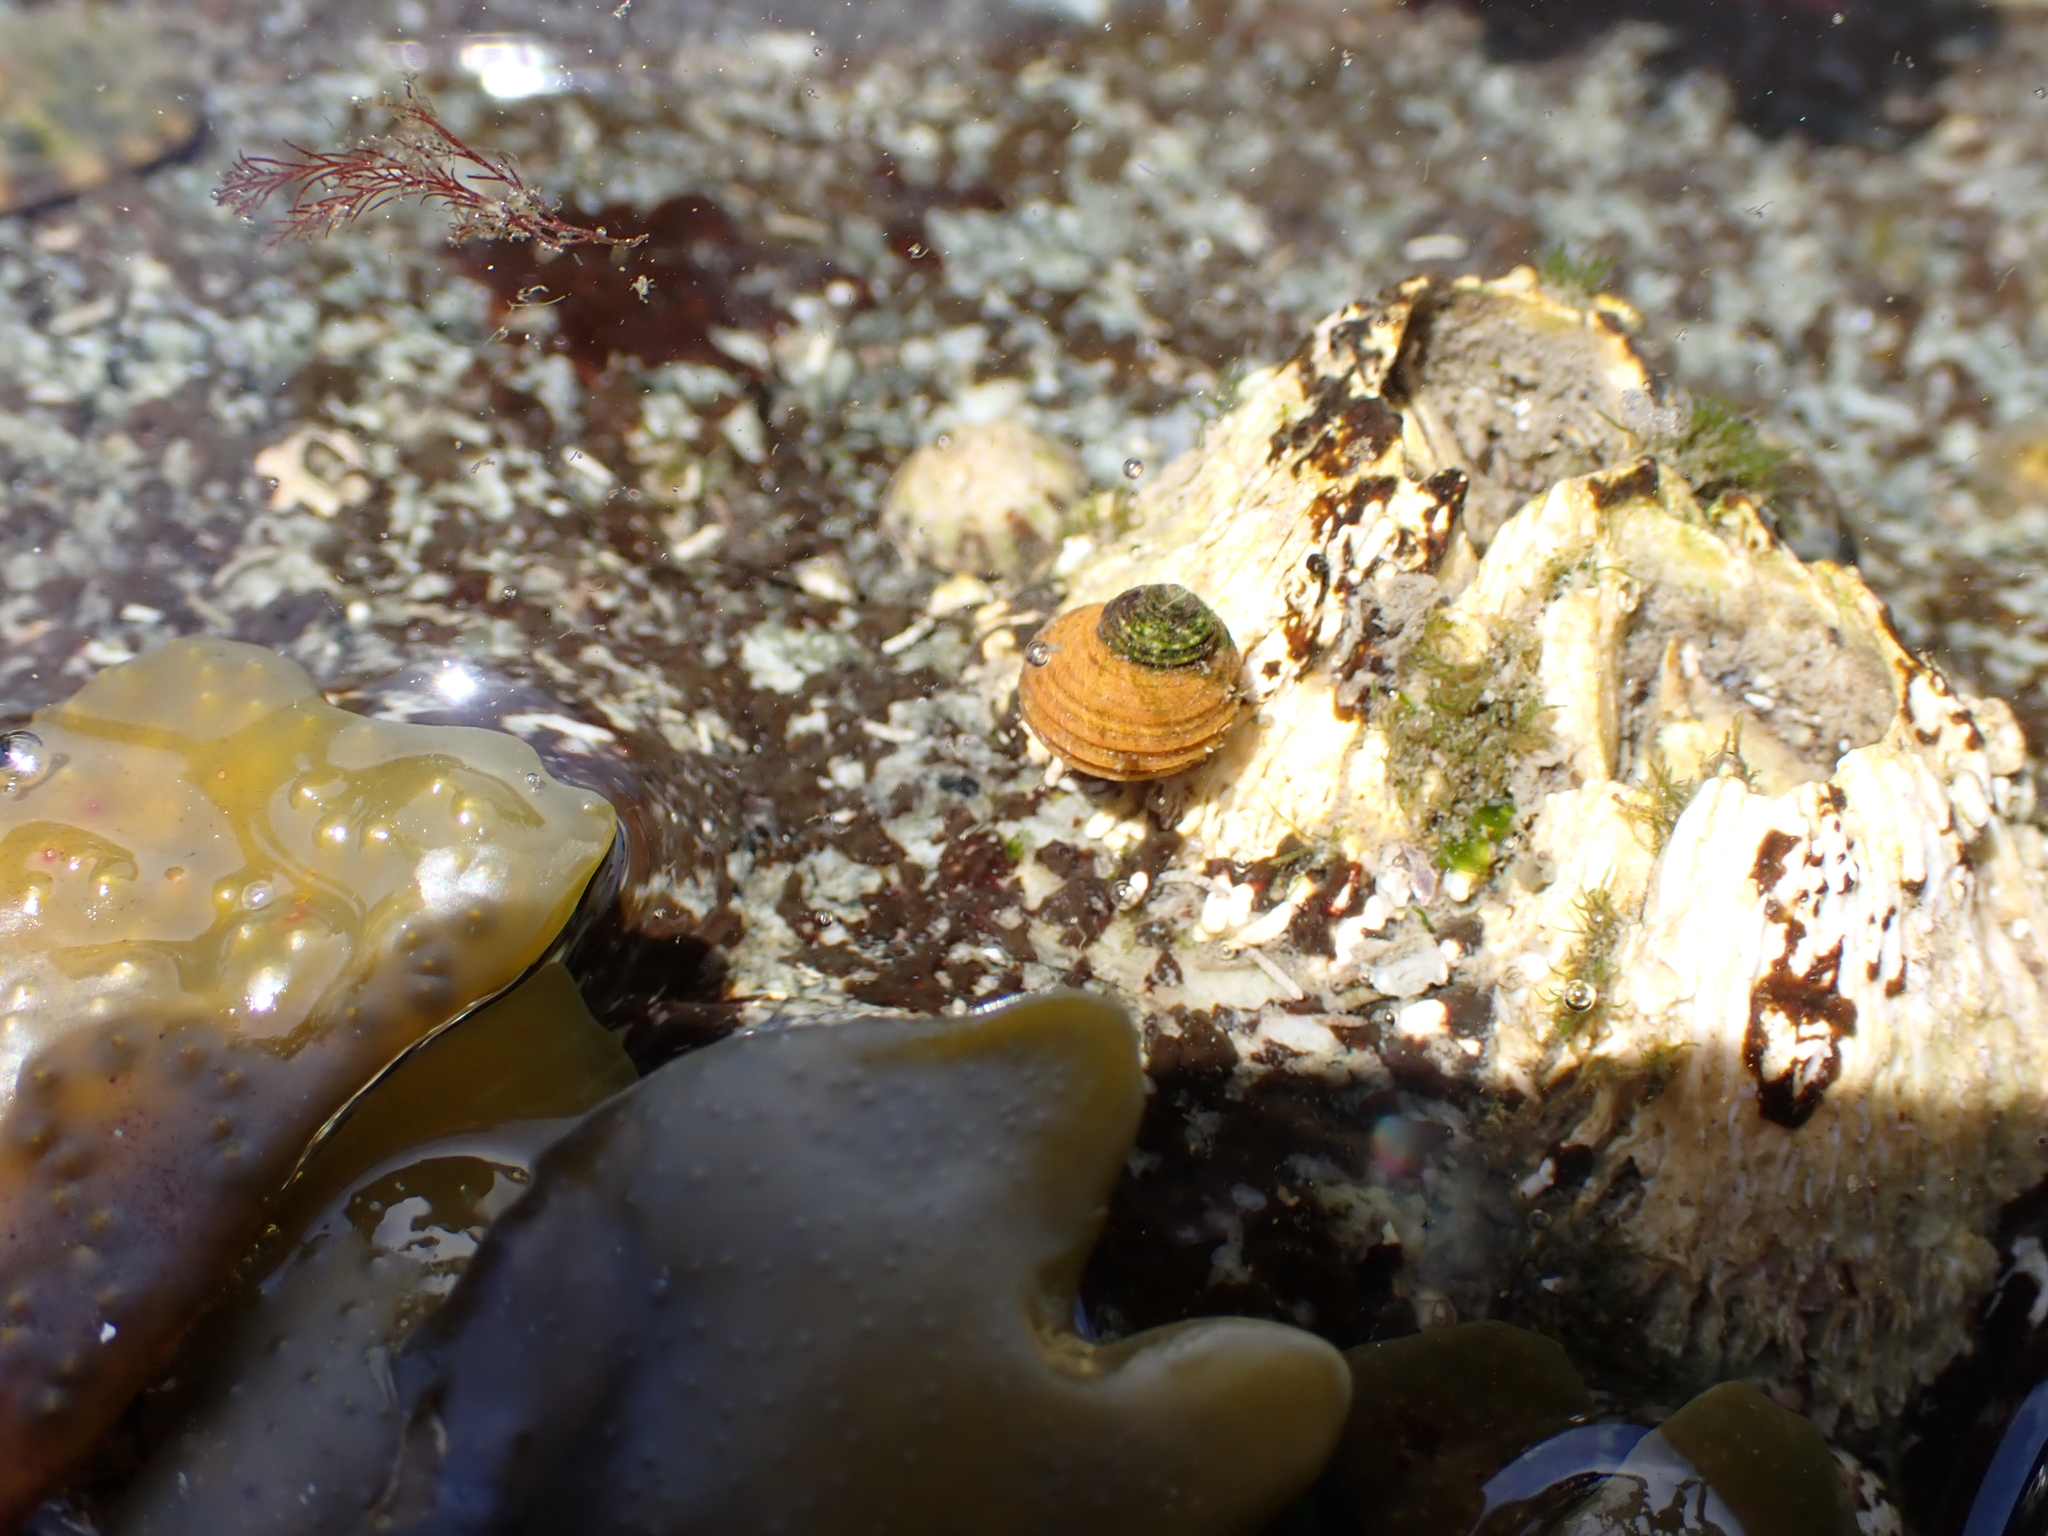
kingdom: Animalia
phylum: Mollusca
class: Gastropoda
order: Littorinimorpha
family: Littorinidae
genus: Littorina
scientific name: Littorina sitkana
